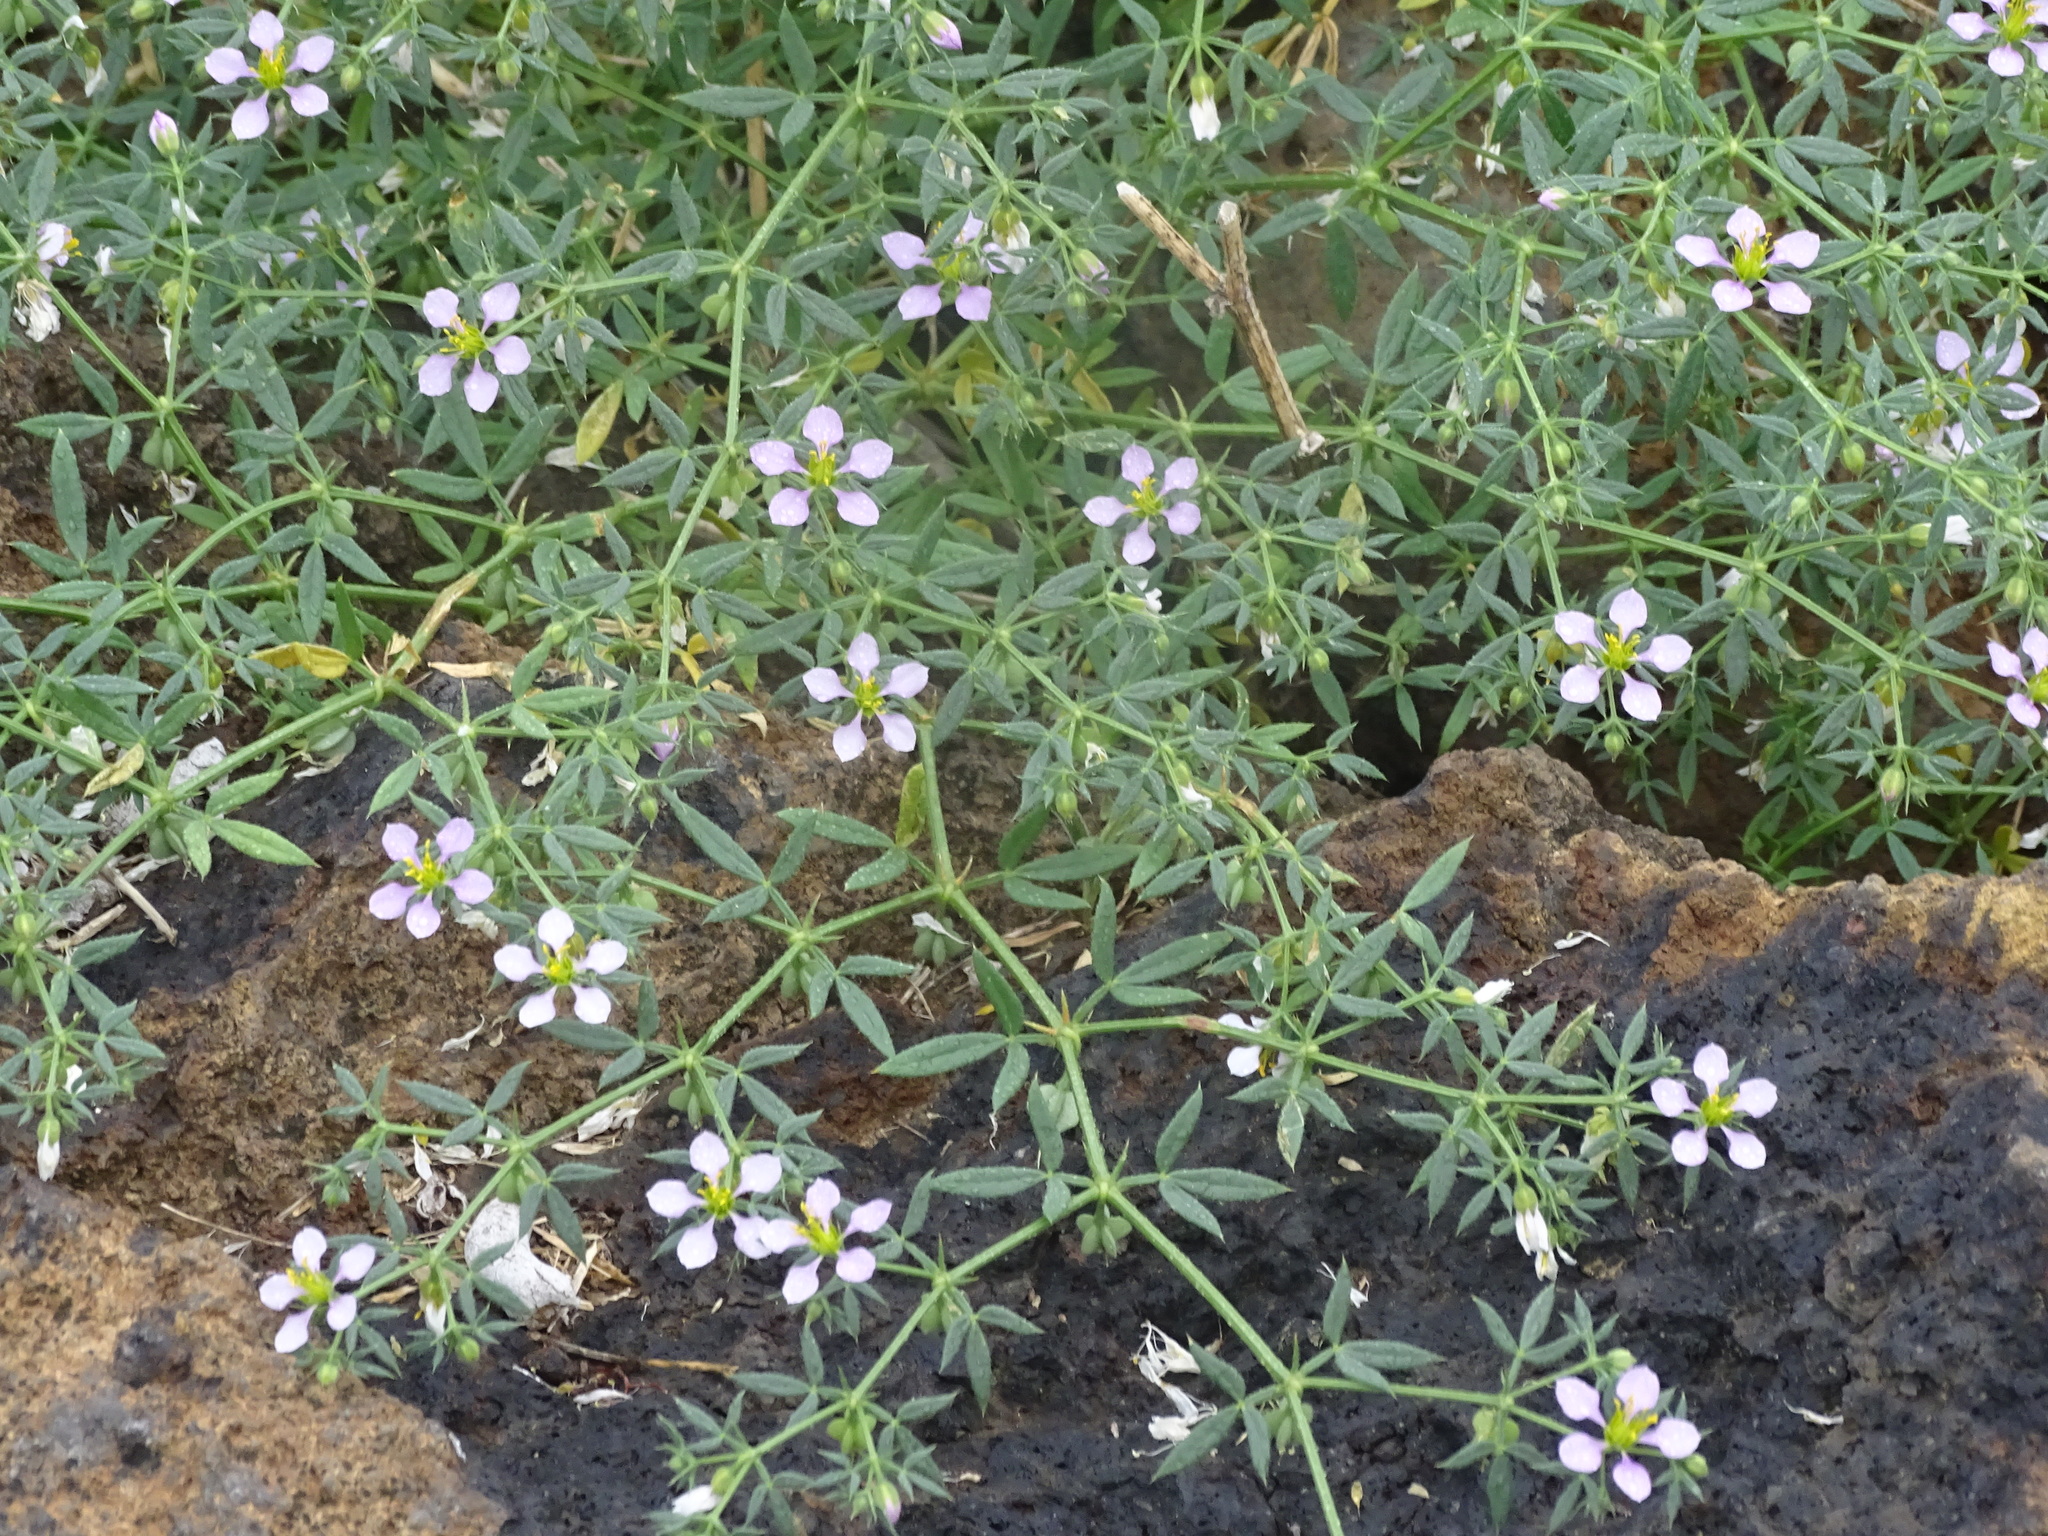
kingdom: Plantae
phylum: Tracheophyta
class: Magnoliopsida
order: Zygophyllales
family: Zygophyllaceae
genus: Fagonia
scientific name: Fagonia cretica
